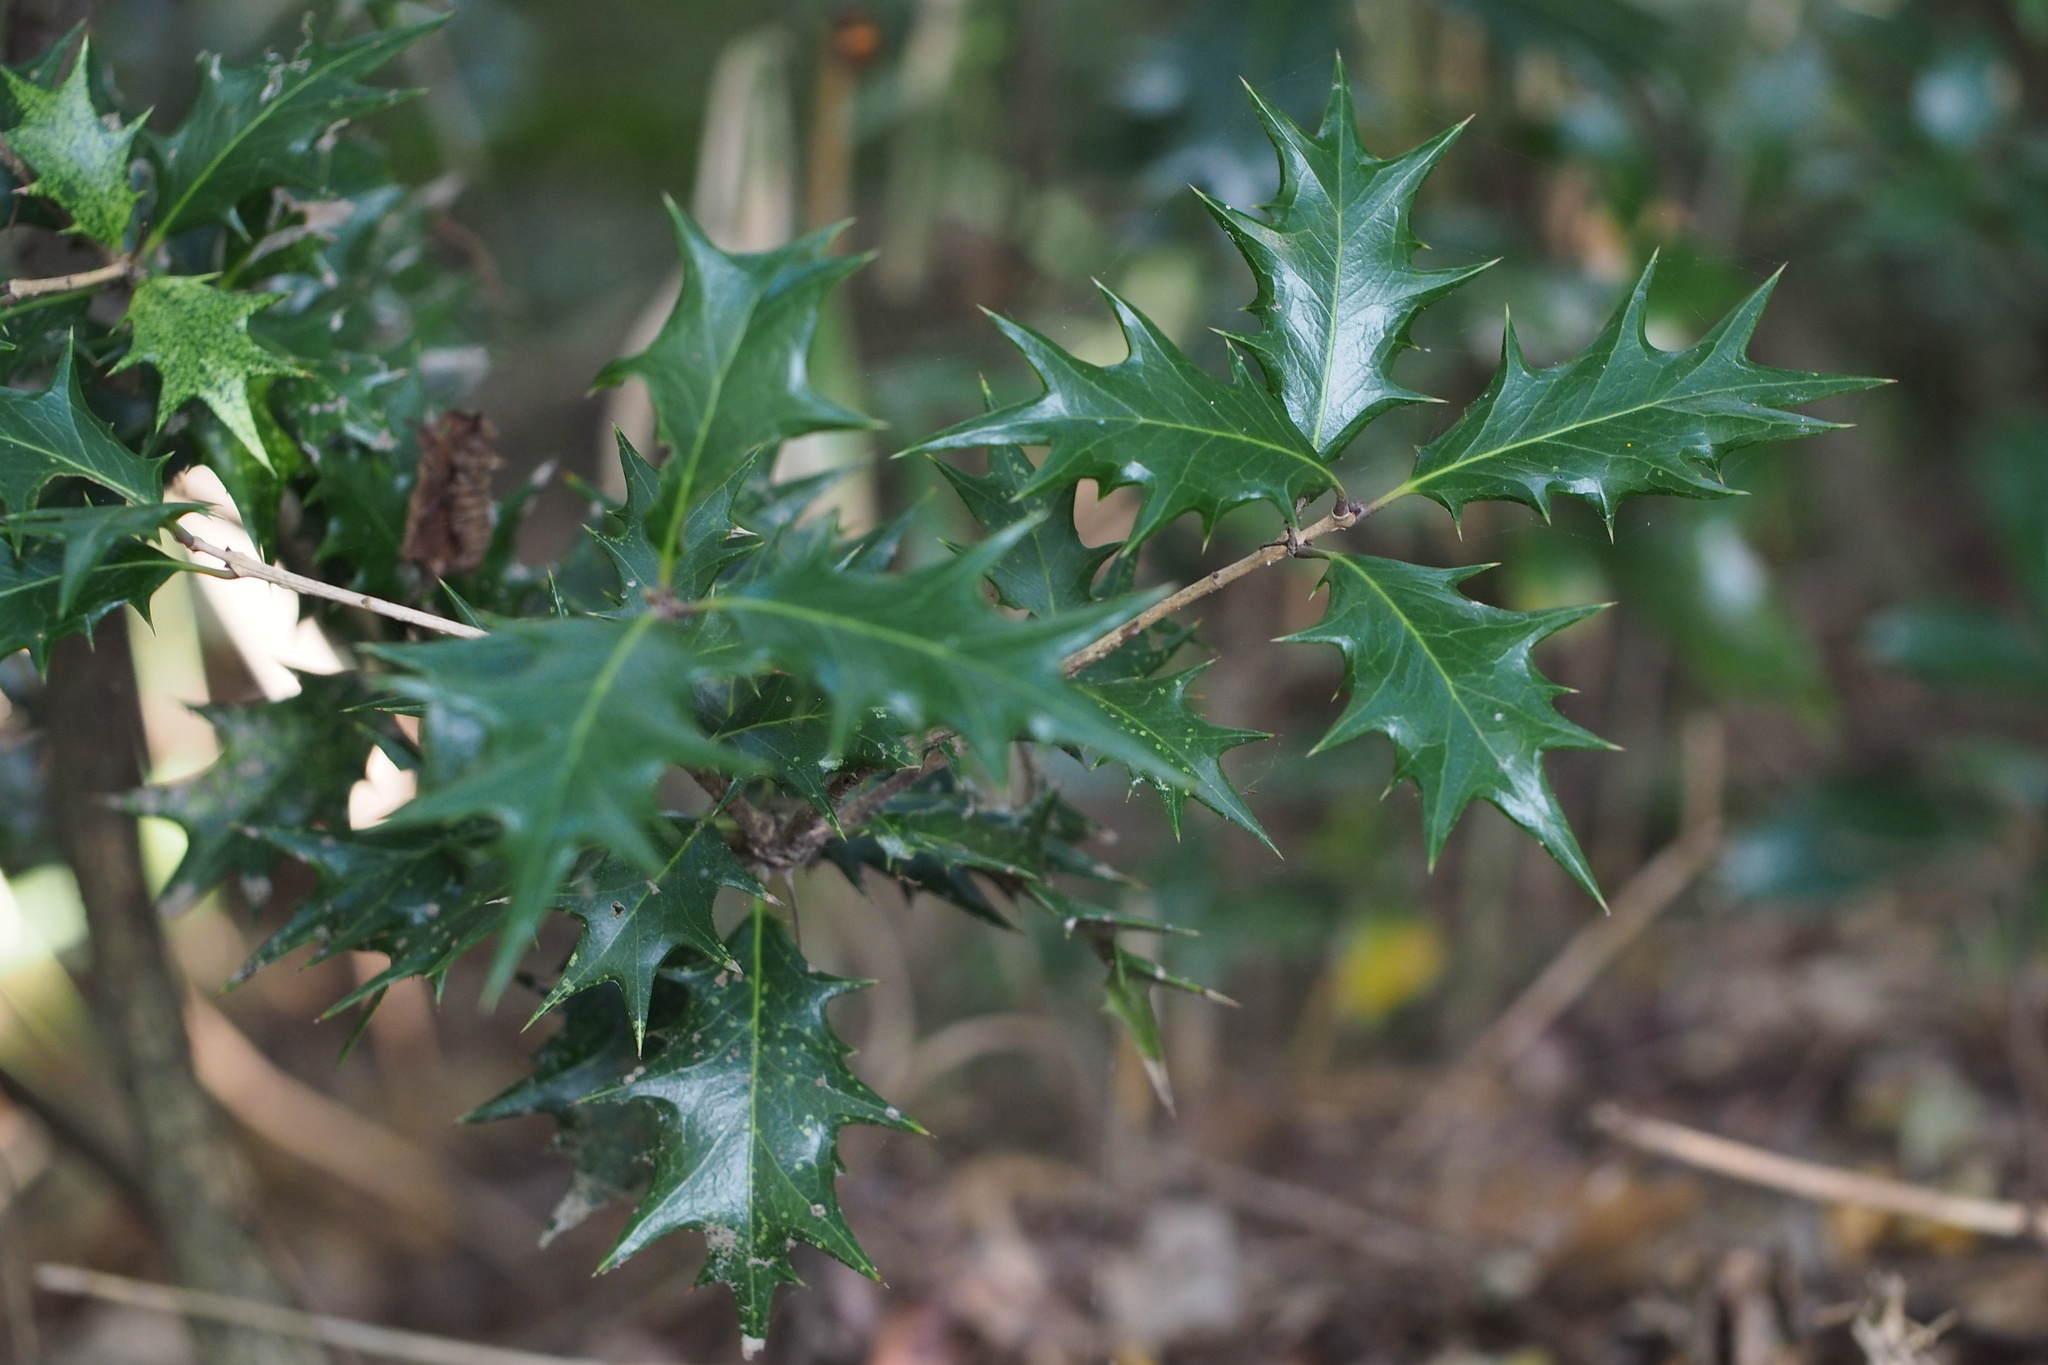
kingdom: Plantae
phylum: Tracheophyta
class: Magnoliopsida
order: Lamiales
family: Oleaceae
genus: Osmanthus
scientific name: Osmanthus heterophyllus
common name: Holly osmanthus
